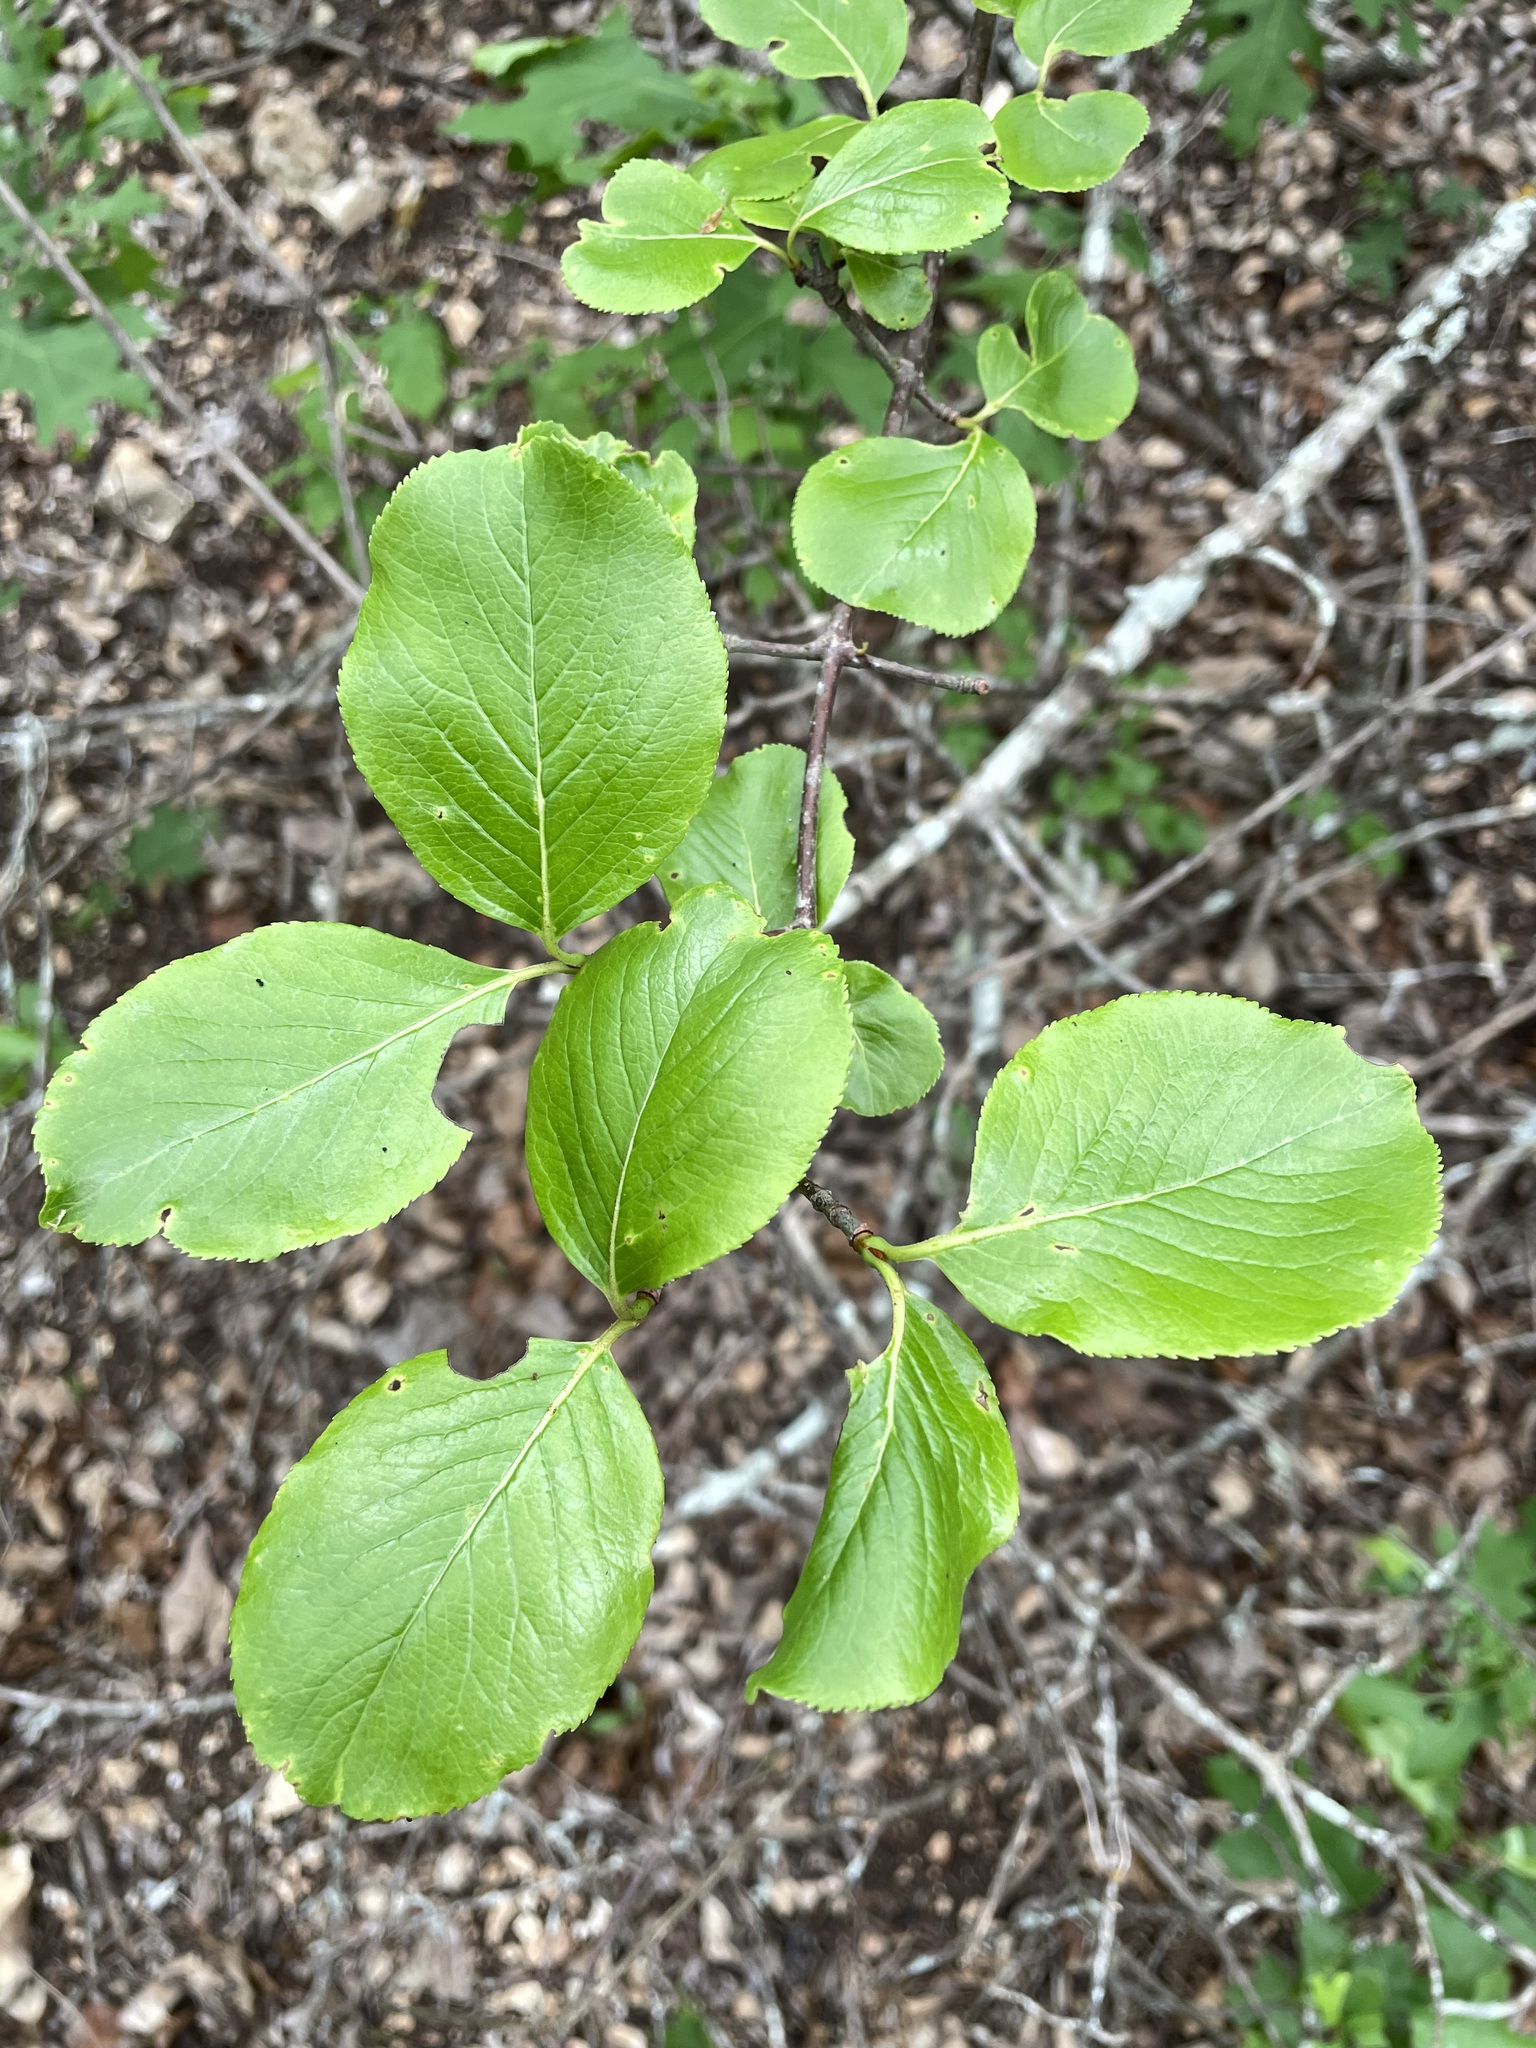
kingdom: Plantae
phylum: Tracheophyta
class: Magnoliopsida
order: Dipsacales
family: Viburnaceae
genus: Viburnum
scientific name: Viburnum rufidulum
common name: Blue haw
